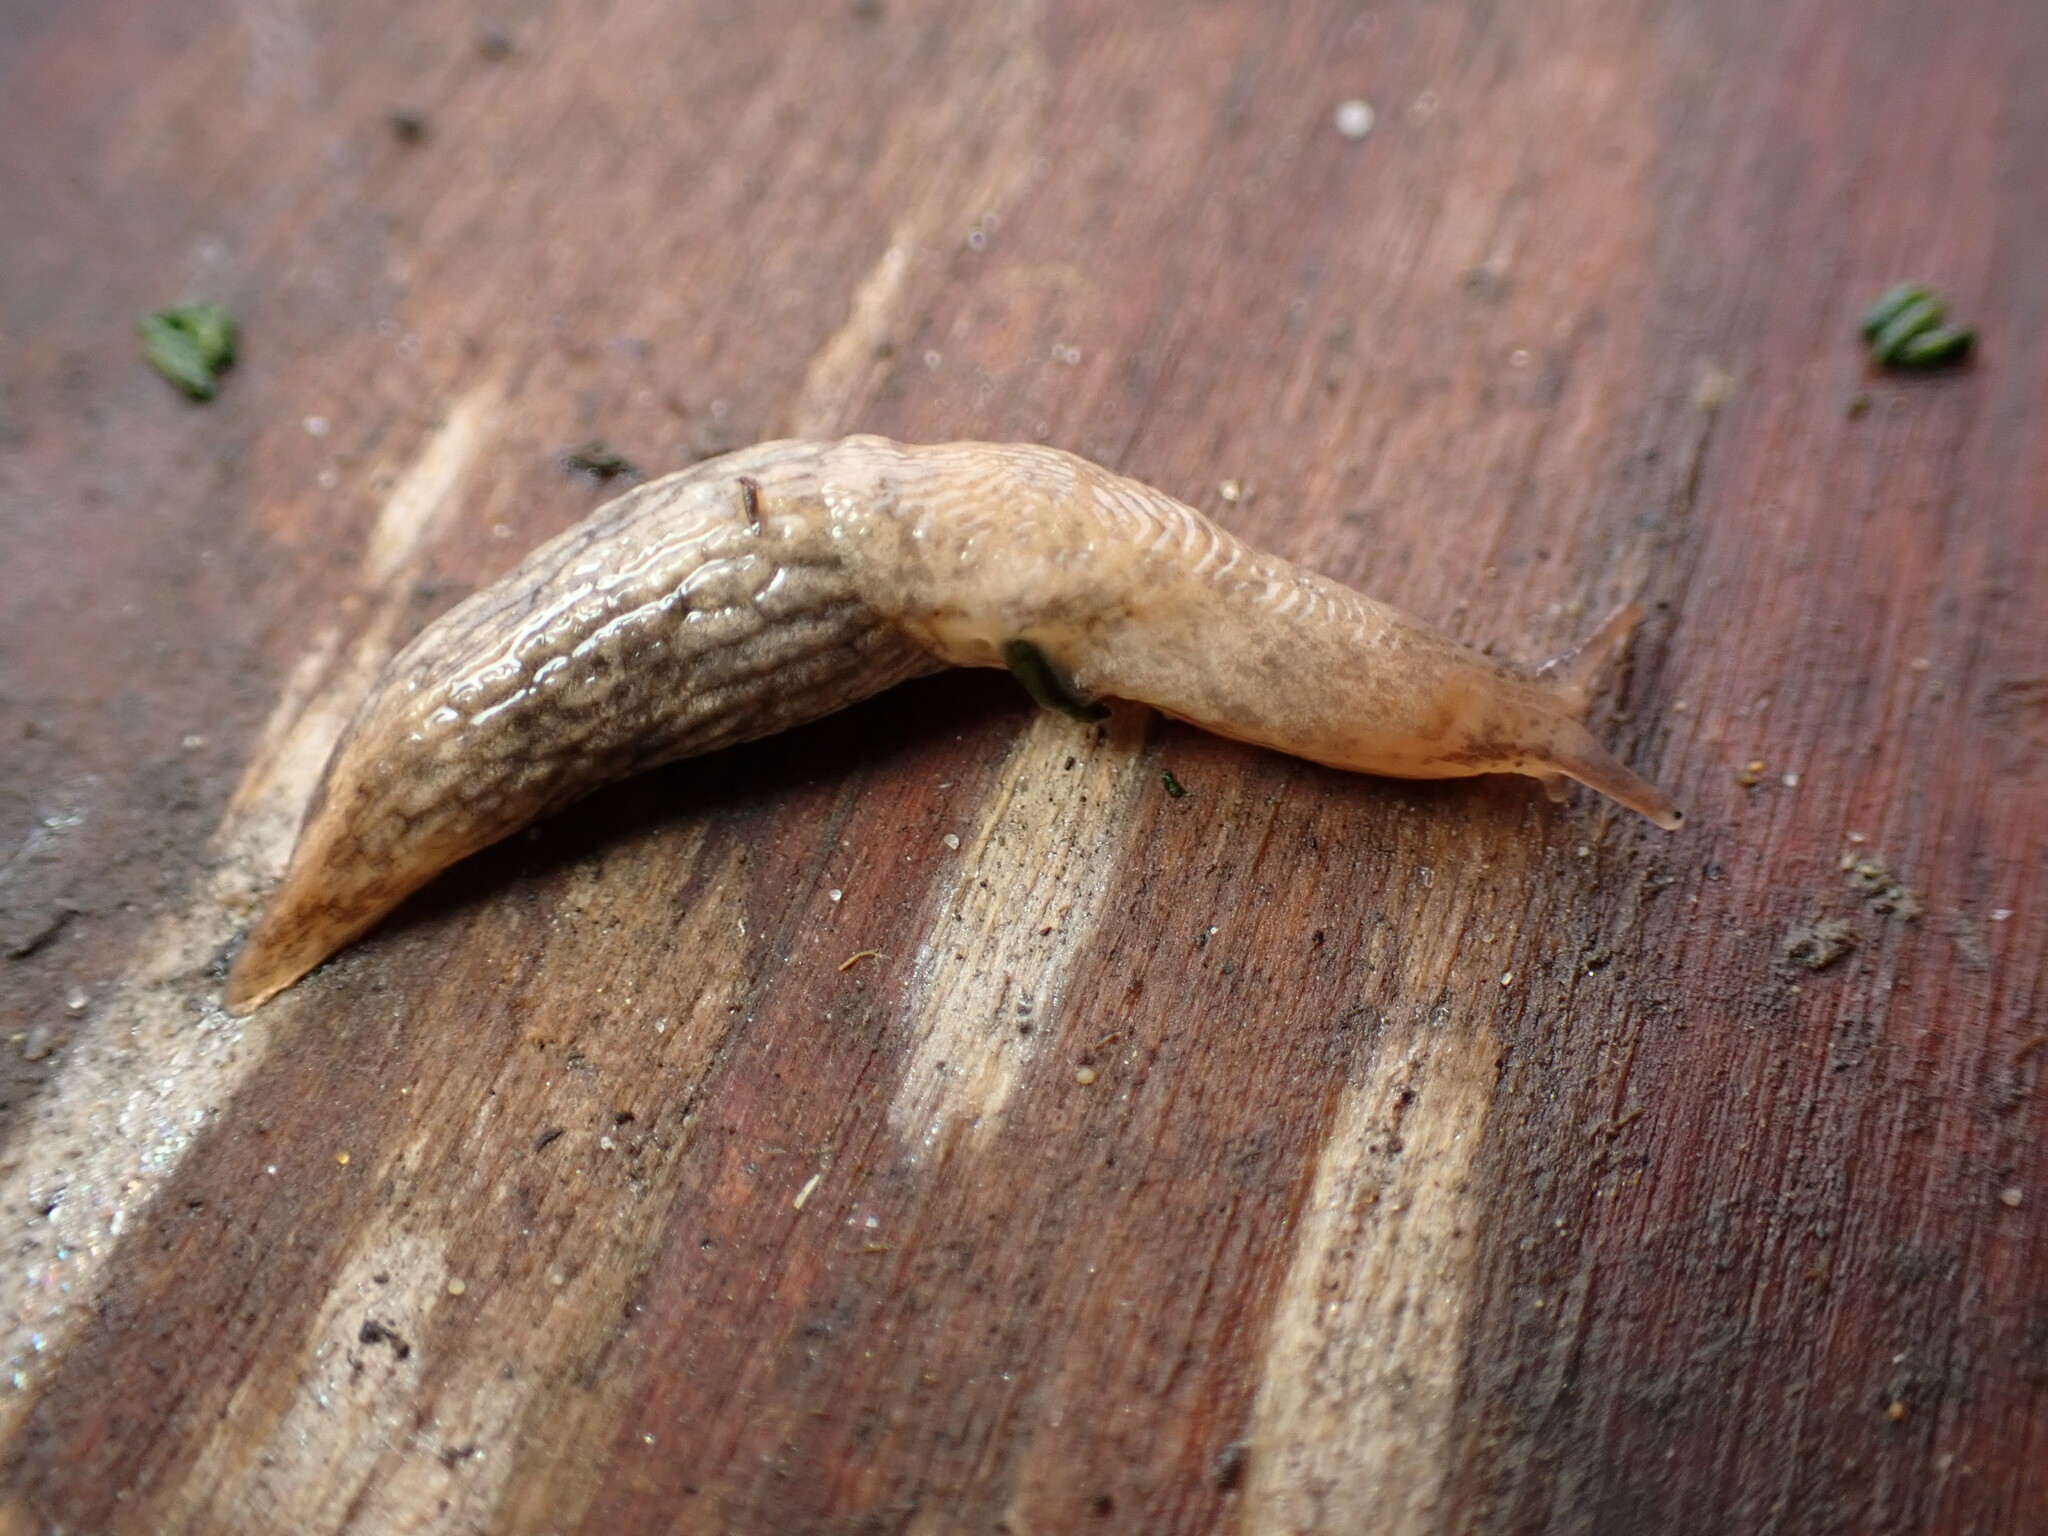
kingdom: Animalia
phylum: Mollusca
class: Gastropoda
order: Stylommatophora
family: Agriolimacidae
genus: Deroceras
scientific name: Deroceras reticulatum
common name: Gray field slug
